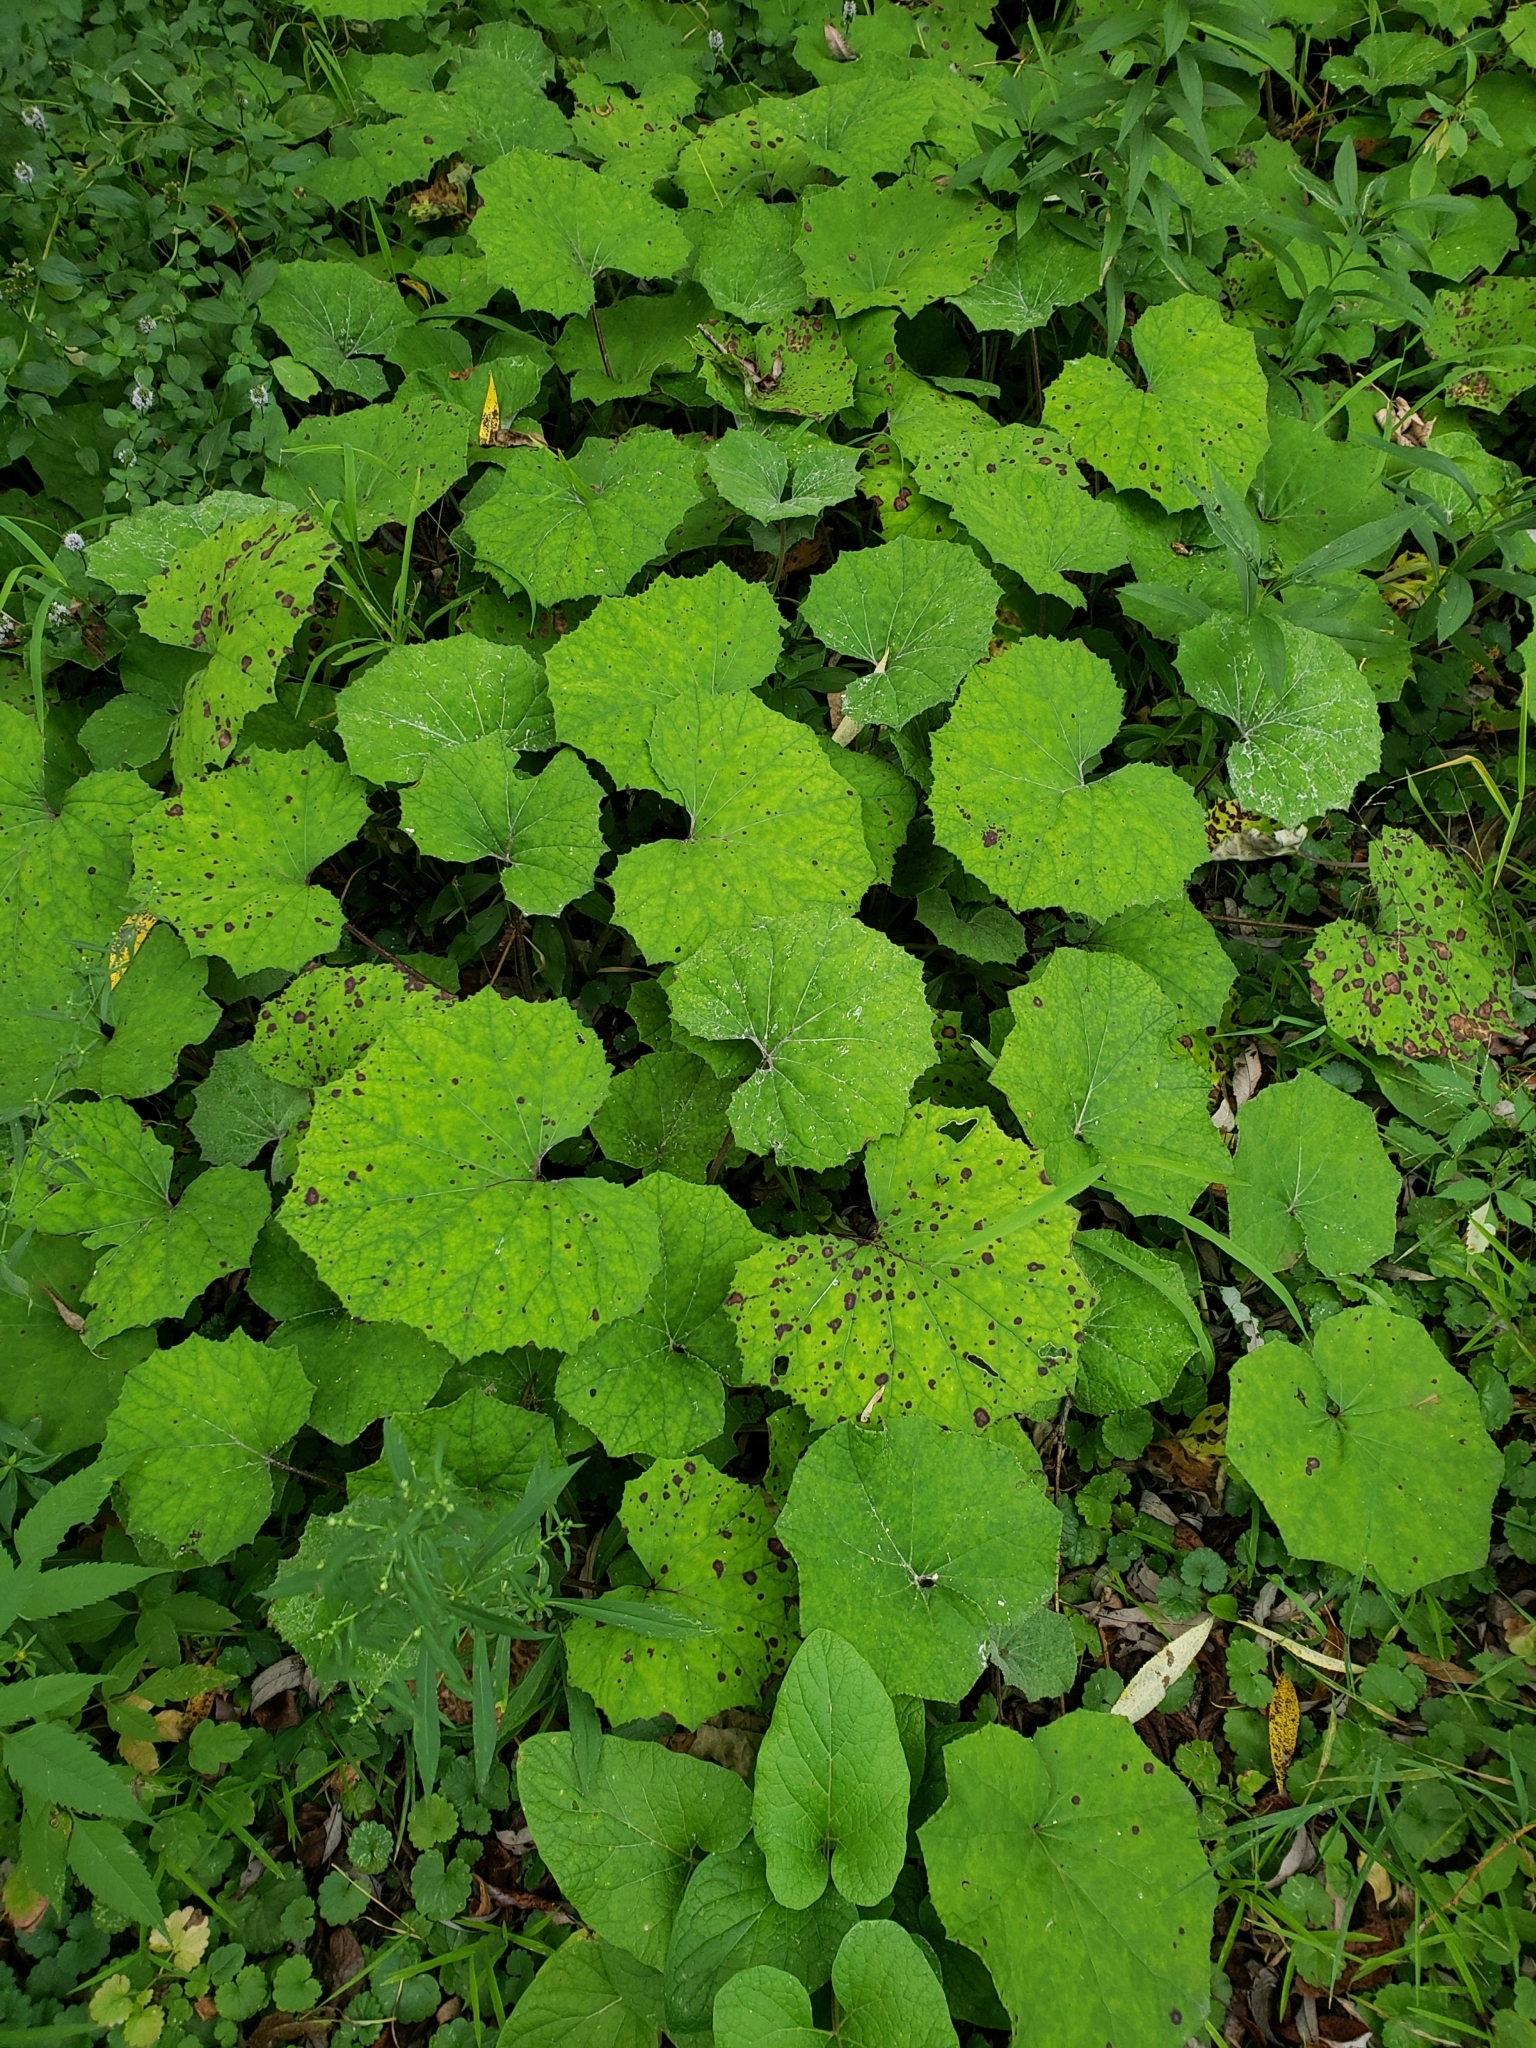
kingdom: Plantae
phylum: Tracheophyta
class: Magnoliopsida
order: Asterales
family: Asteraceae
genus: Tussilago
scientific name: Tussilago farfara
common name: Coltsfoot
